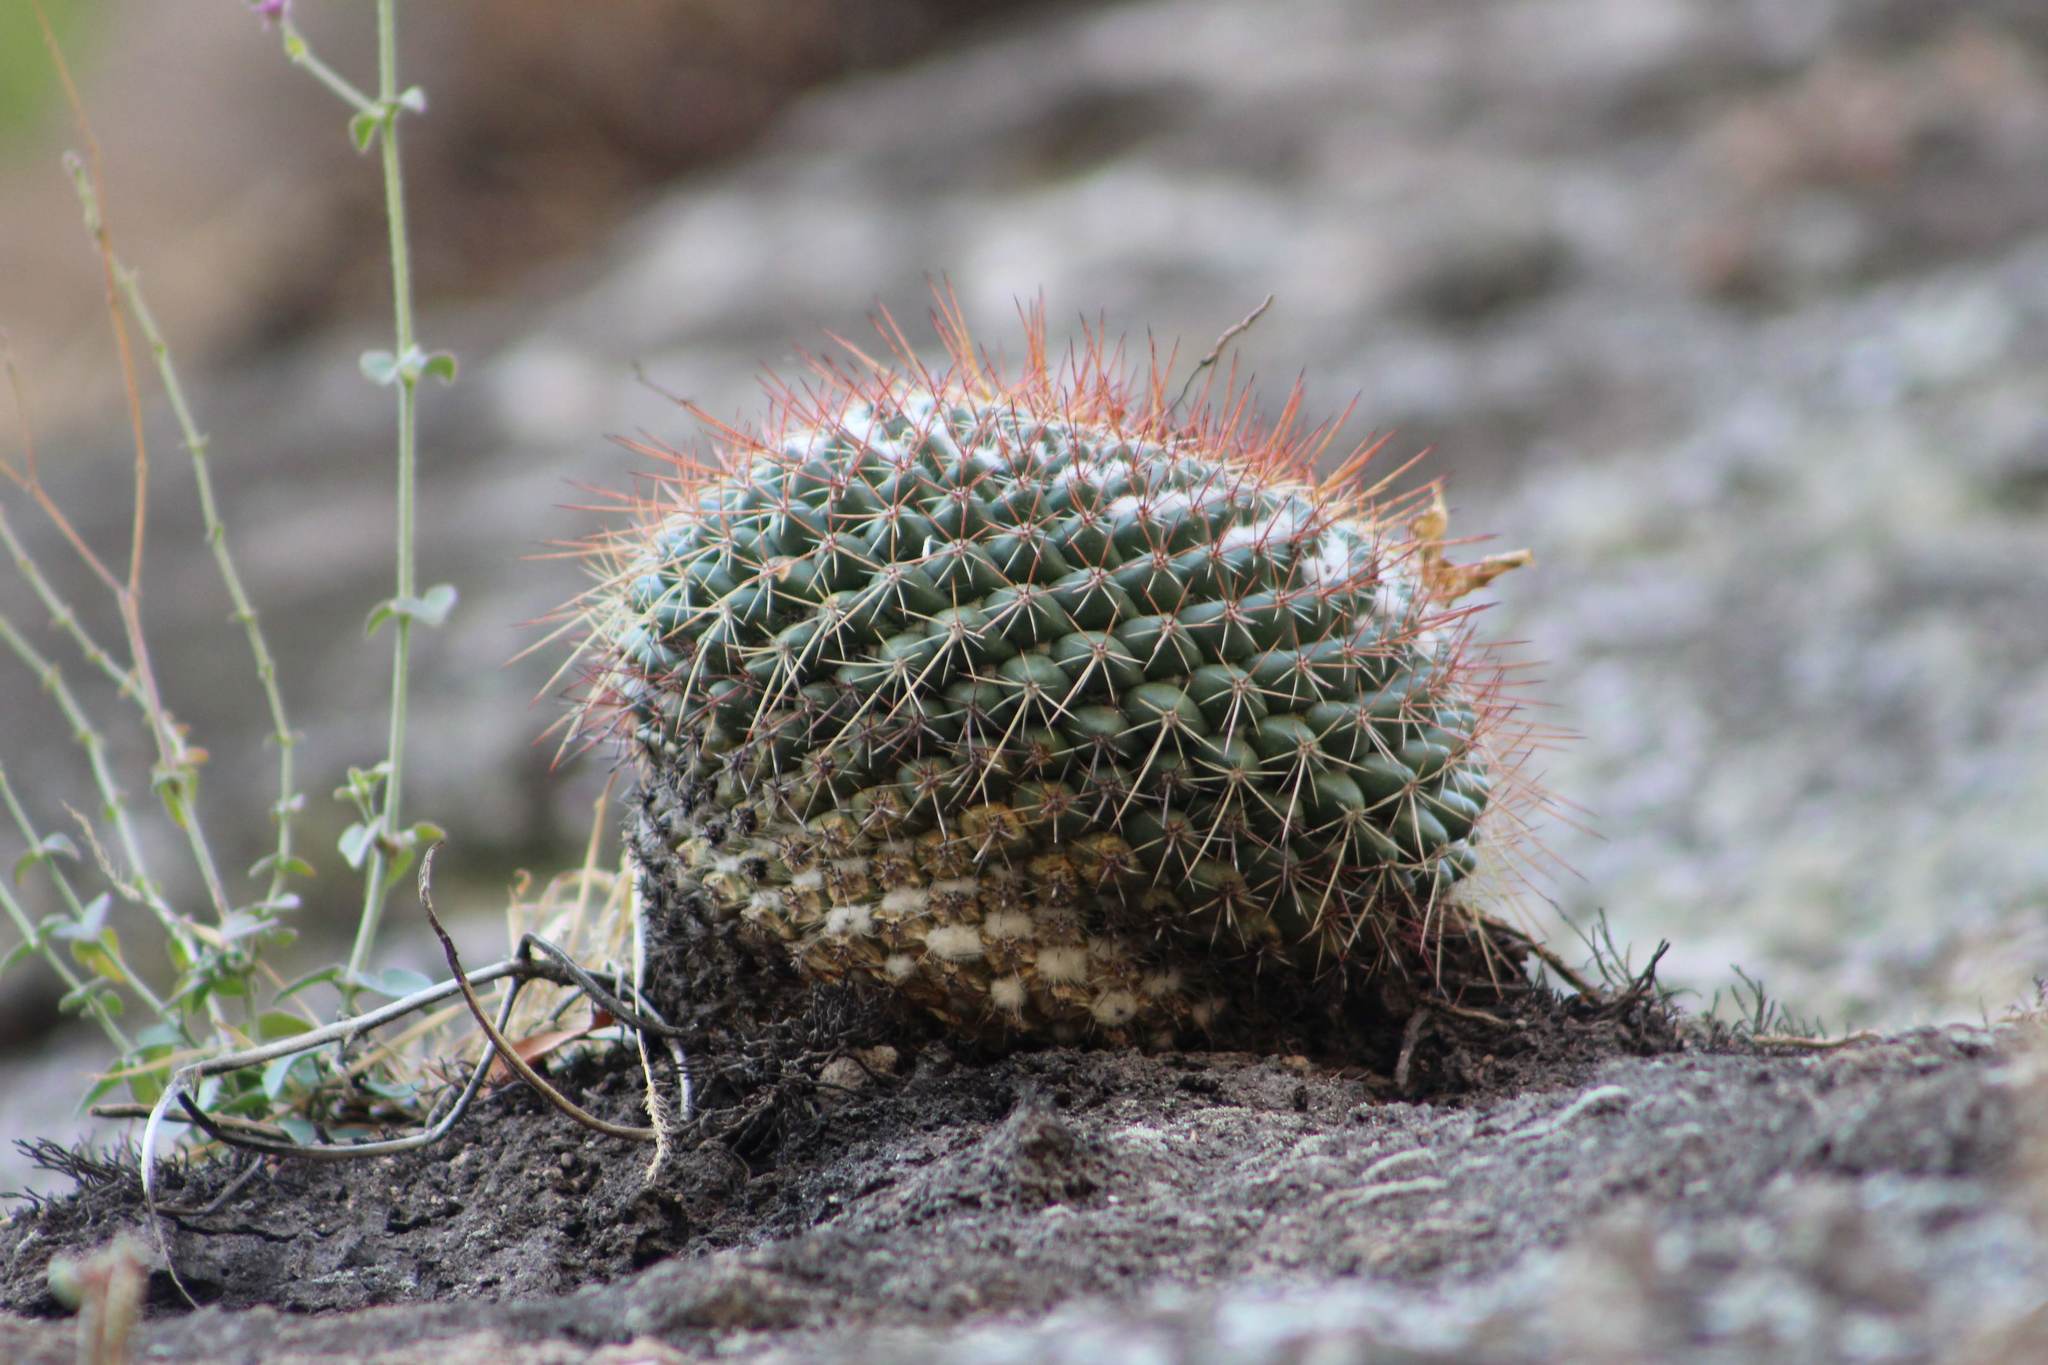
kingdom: Plantae
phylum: Tracheophyta
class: Magnoliopsida
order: Caryophyllales
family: Cactaceae
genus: Mammillaria
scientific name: Mammillaria petterssonii
